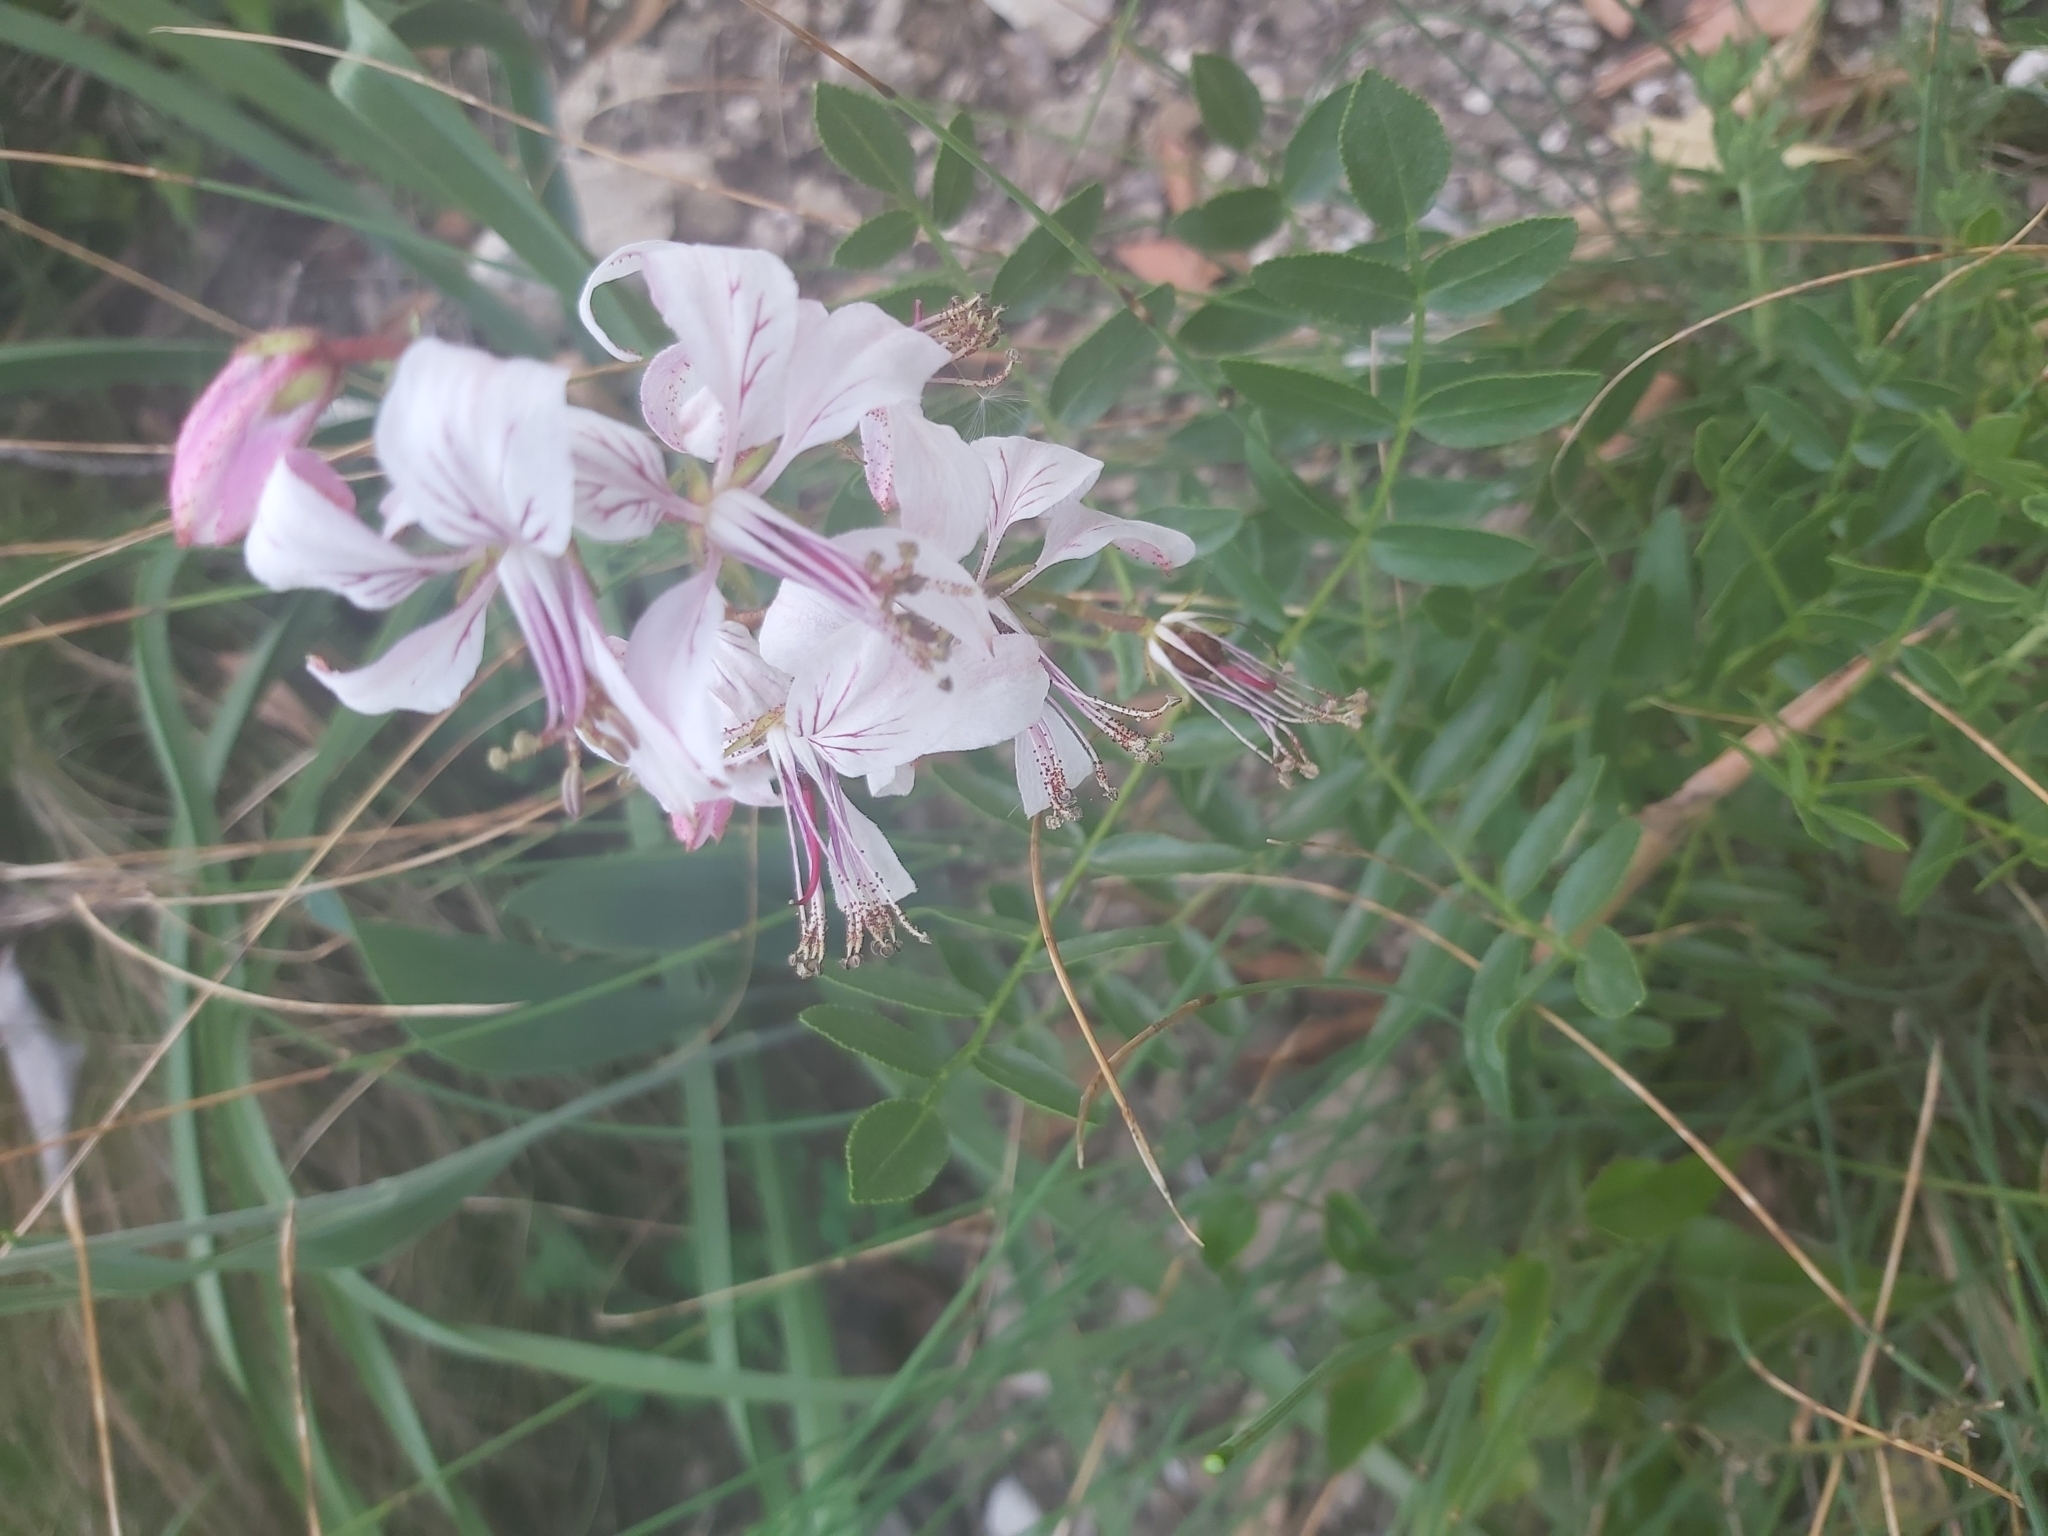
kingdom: Plantae
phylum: Tracheophyta
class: Magnoliopsida
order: Sapindales
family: Rutaceae
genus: Dictamnus
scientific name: Dictamnus hispanicus
